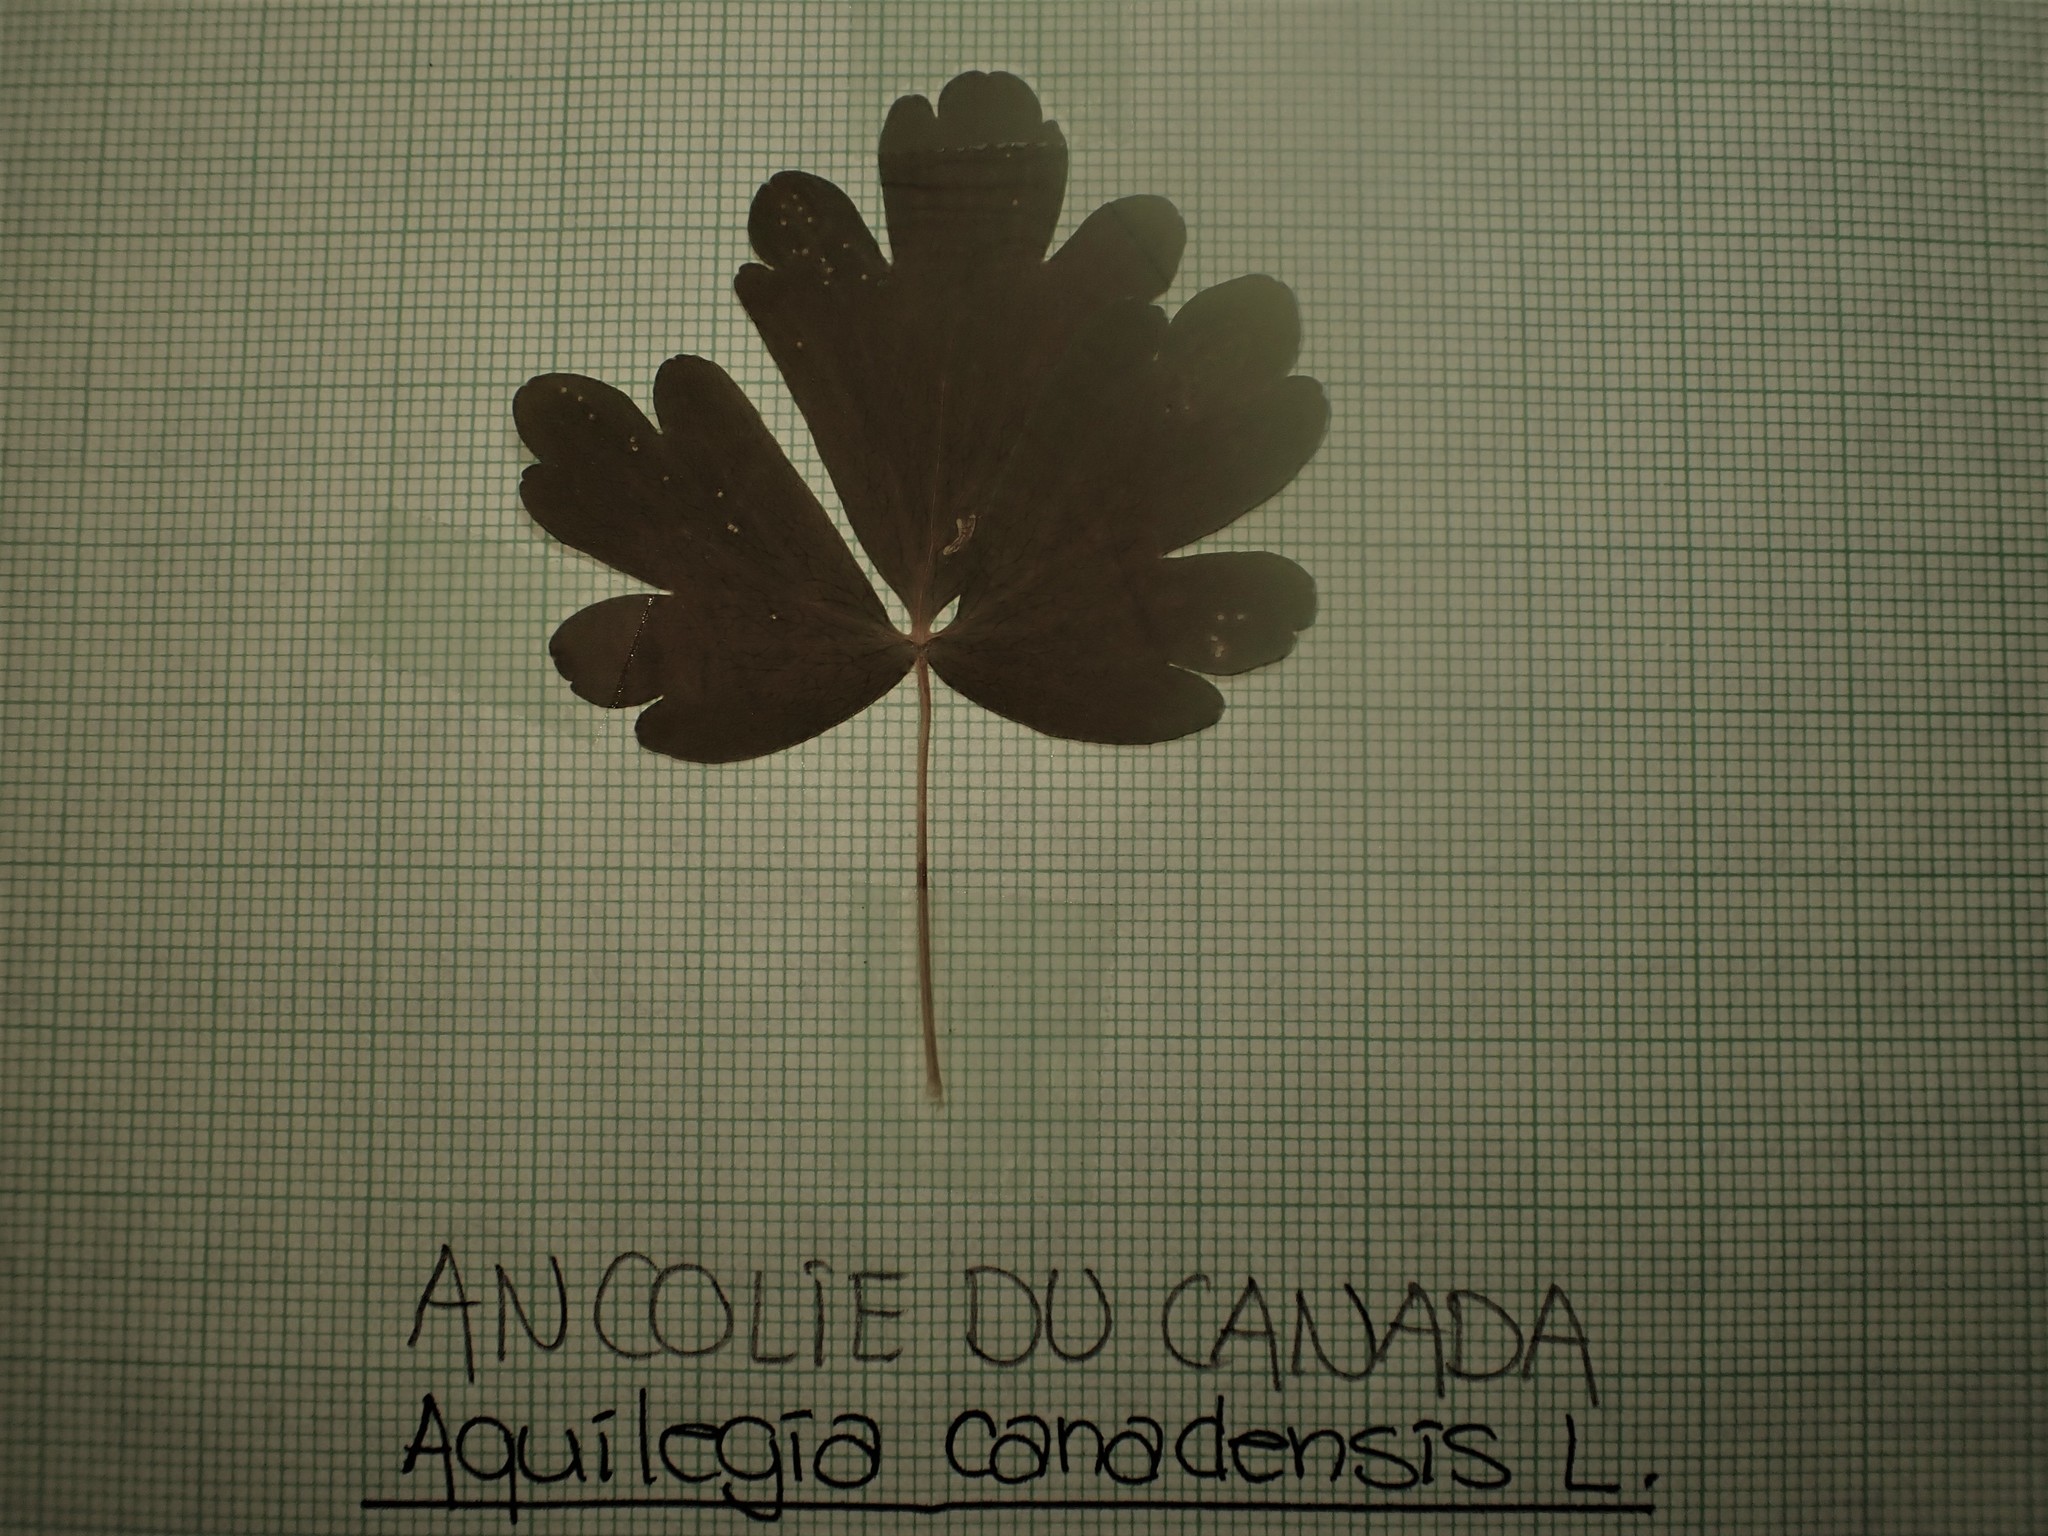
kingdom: Plantae
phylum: Tracheophyta
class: Magnoliopsida
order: Ranunculales
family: Ranunculaceae
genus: Aquilegia
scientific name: Aquilegia canadensis
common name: American columbine
